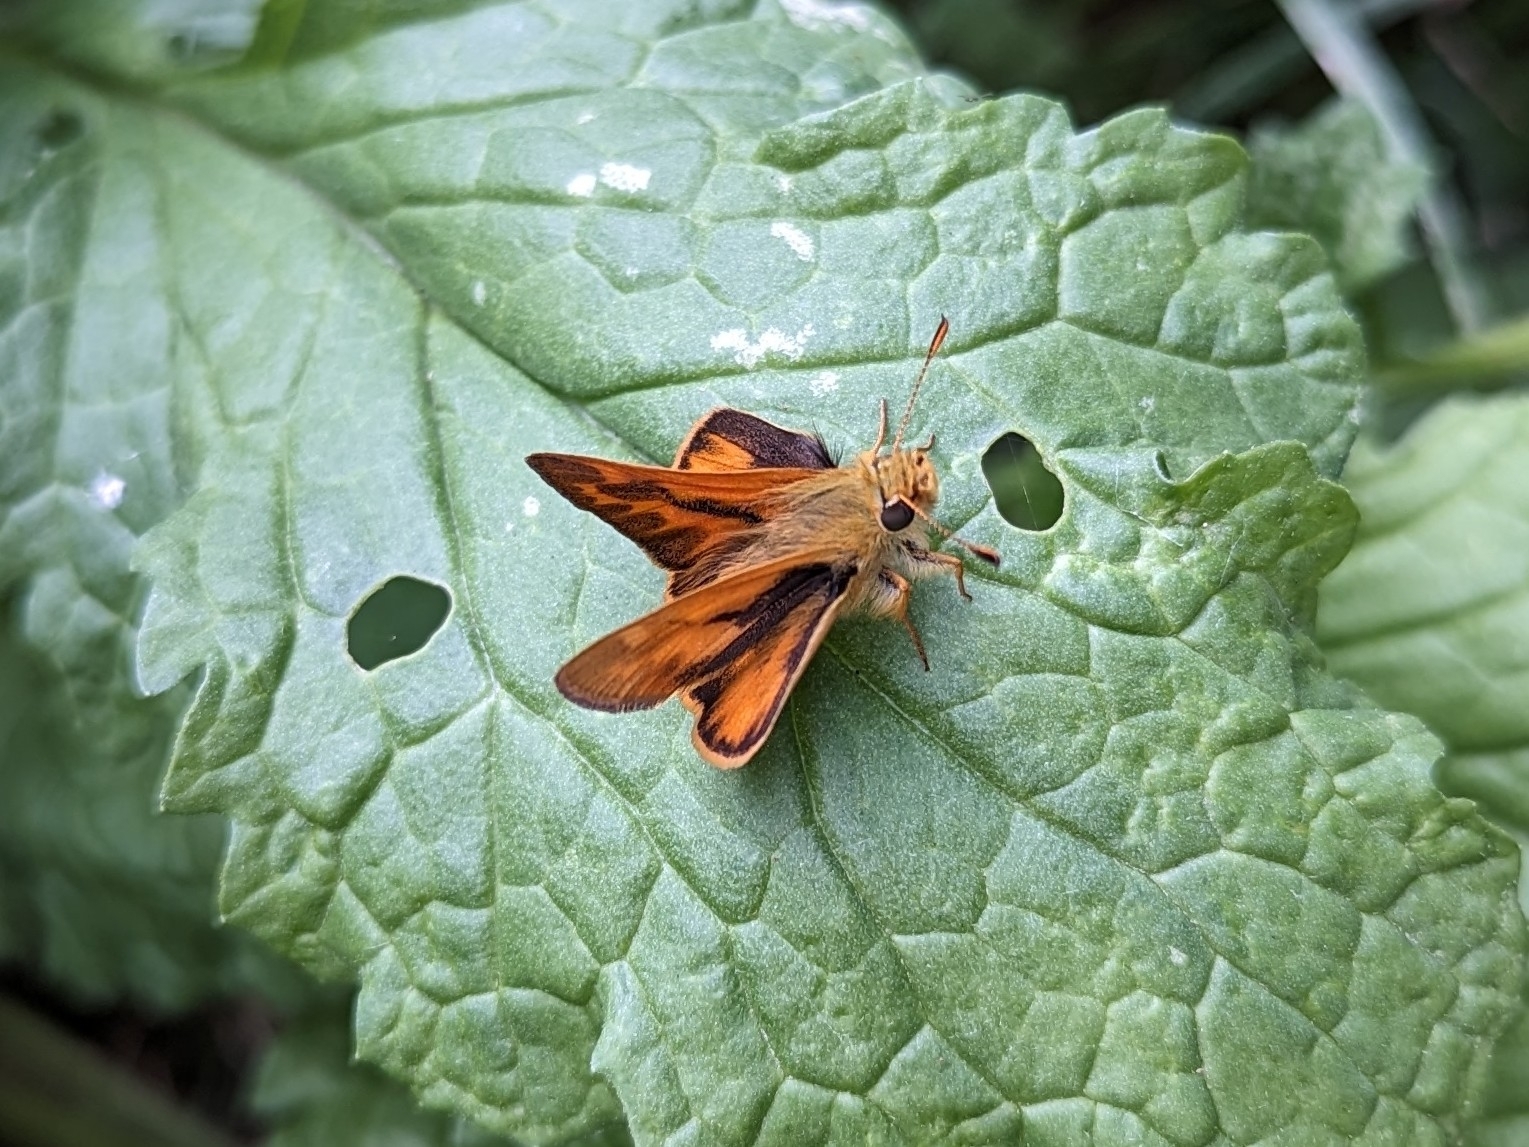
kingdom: Animalia
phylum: Arthropoda
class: Insecta
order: Lepidoptera
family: Hesperiidae
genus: Ochlodes
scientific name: Ochlodes sylvanoides
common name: Woodland skipper
